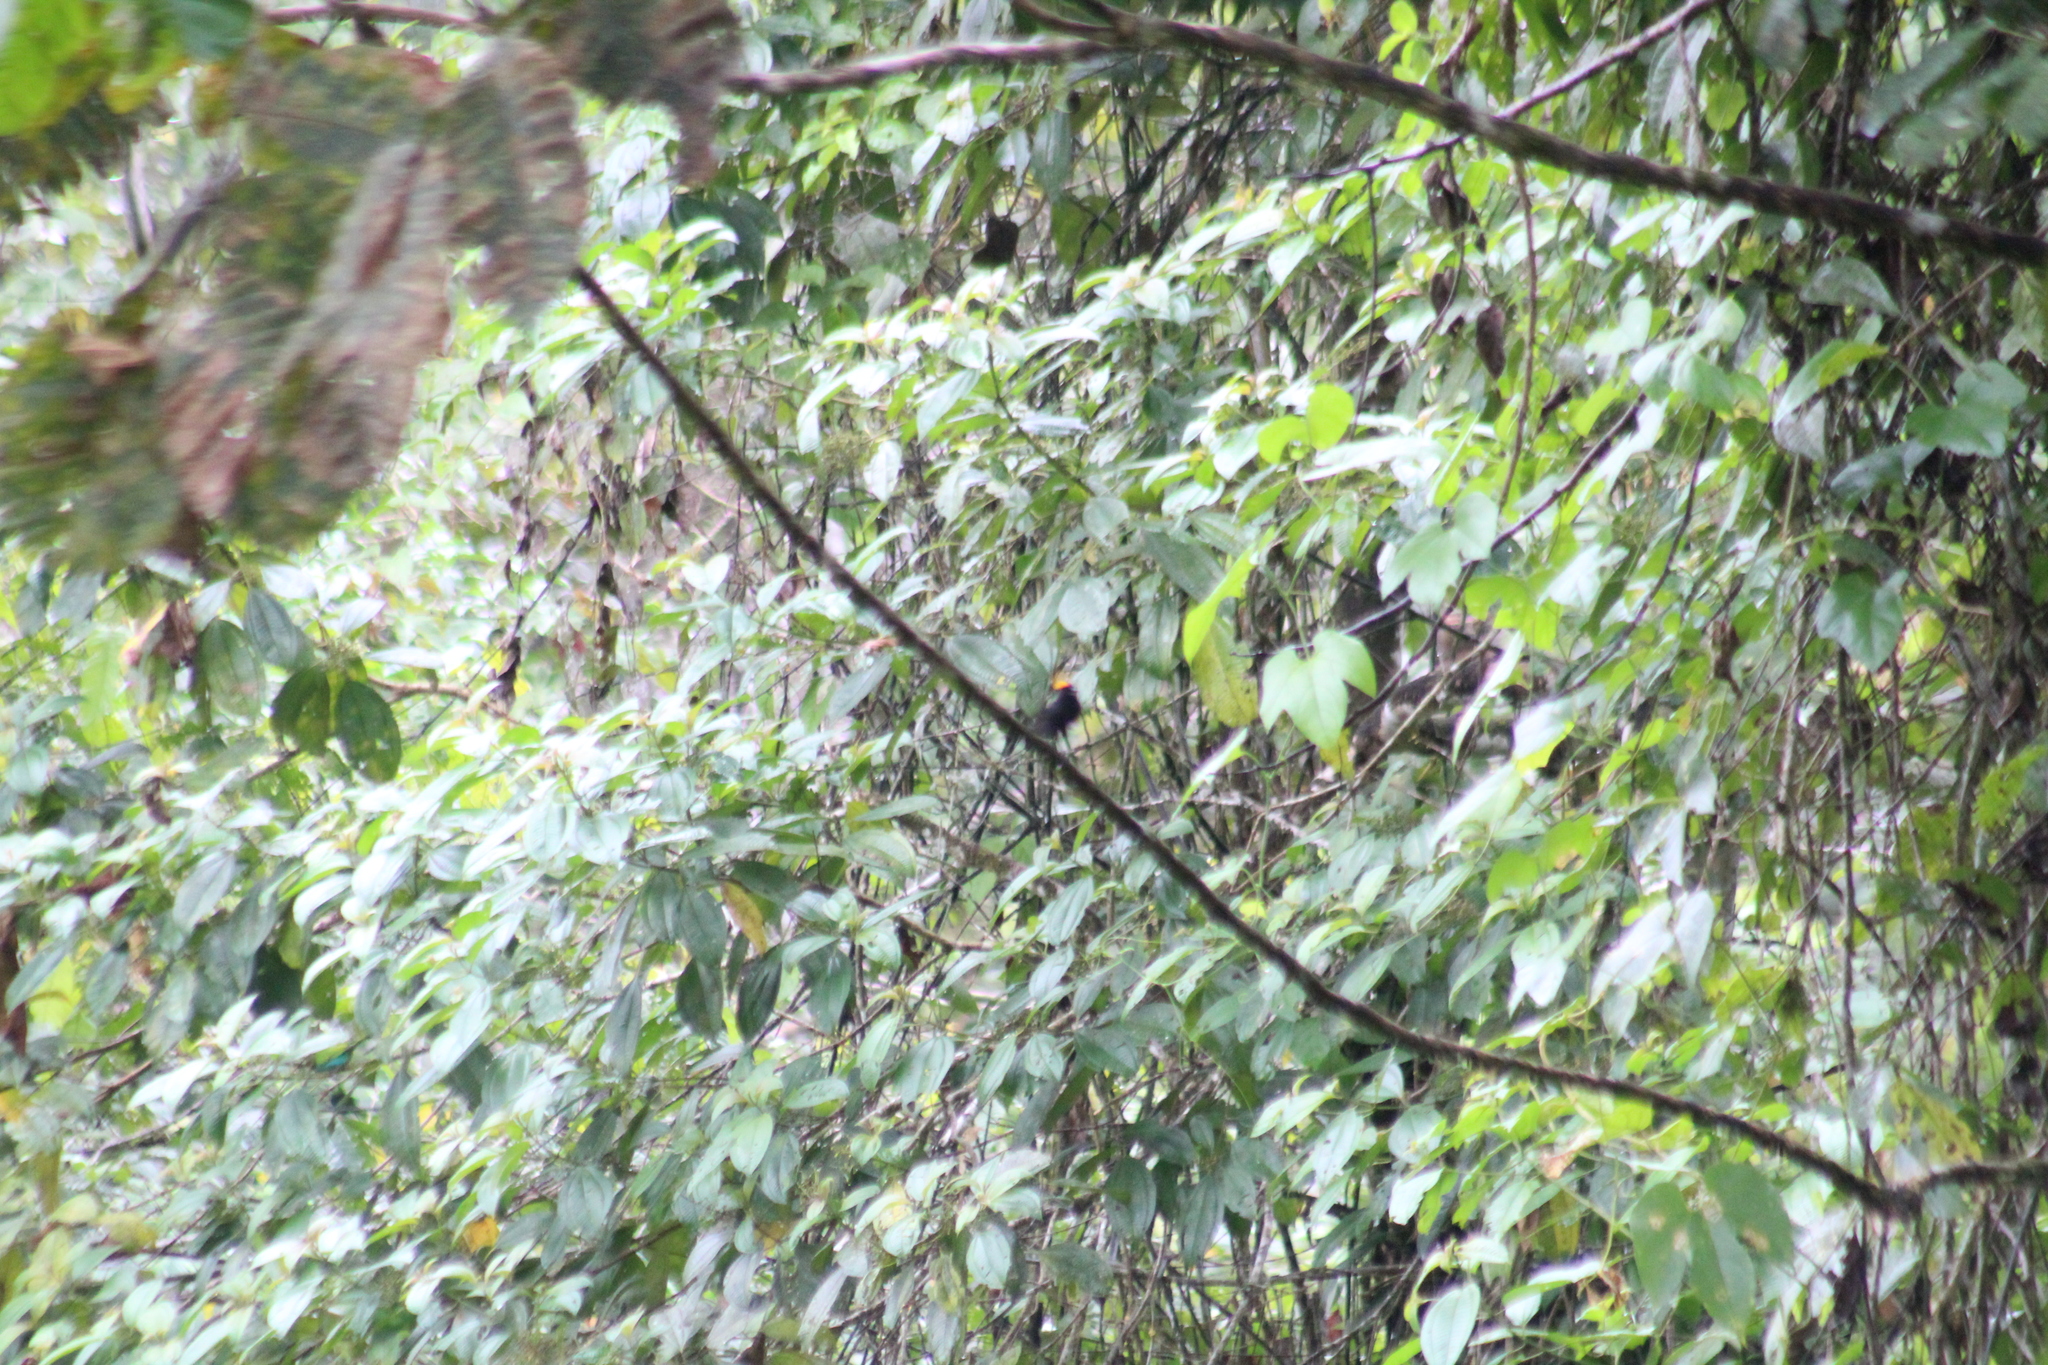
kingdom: Animalia
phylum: Chordata
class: Aves
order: Passeriformes
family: Thraupidae
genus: Tachyphonus
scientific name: Tachyphonus delatrii
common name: Tawny-crested tanager
